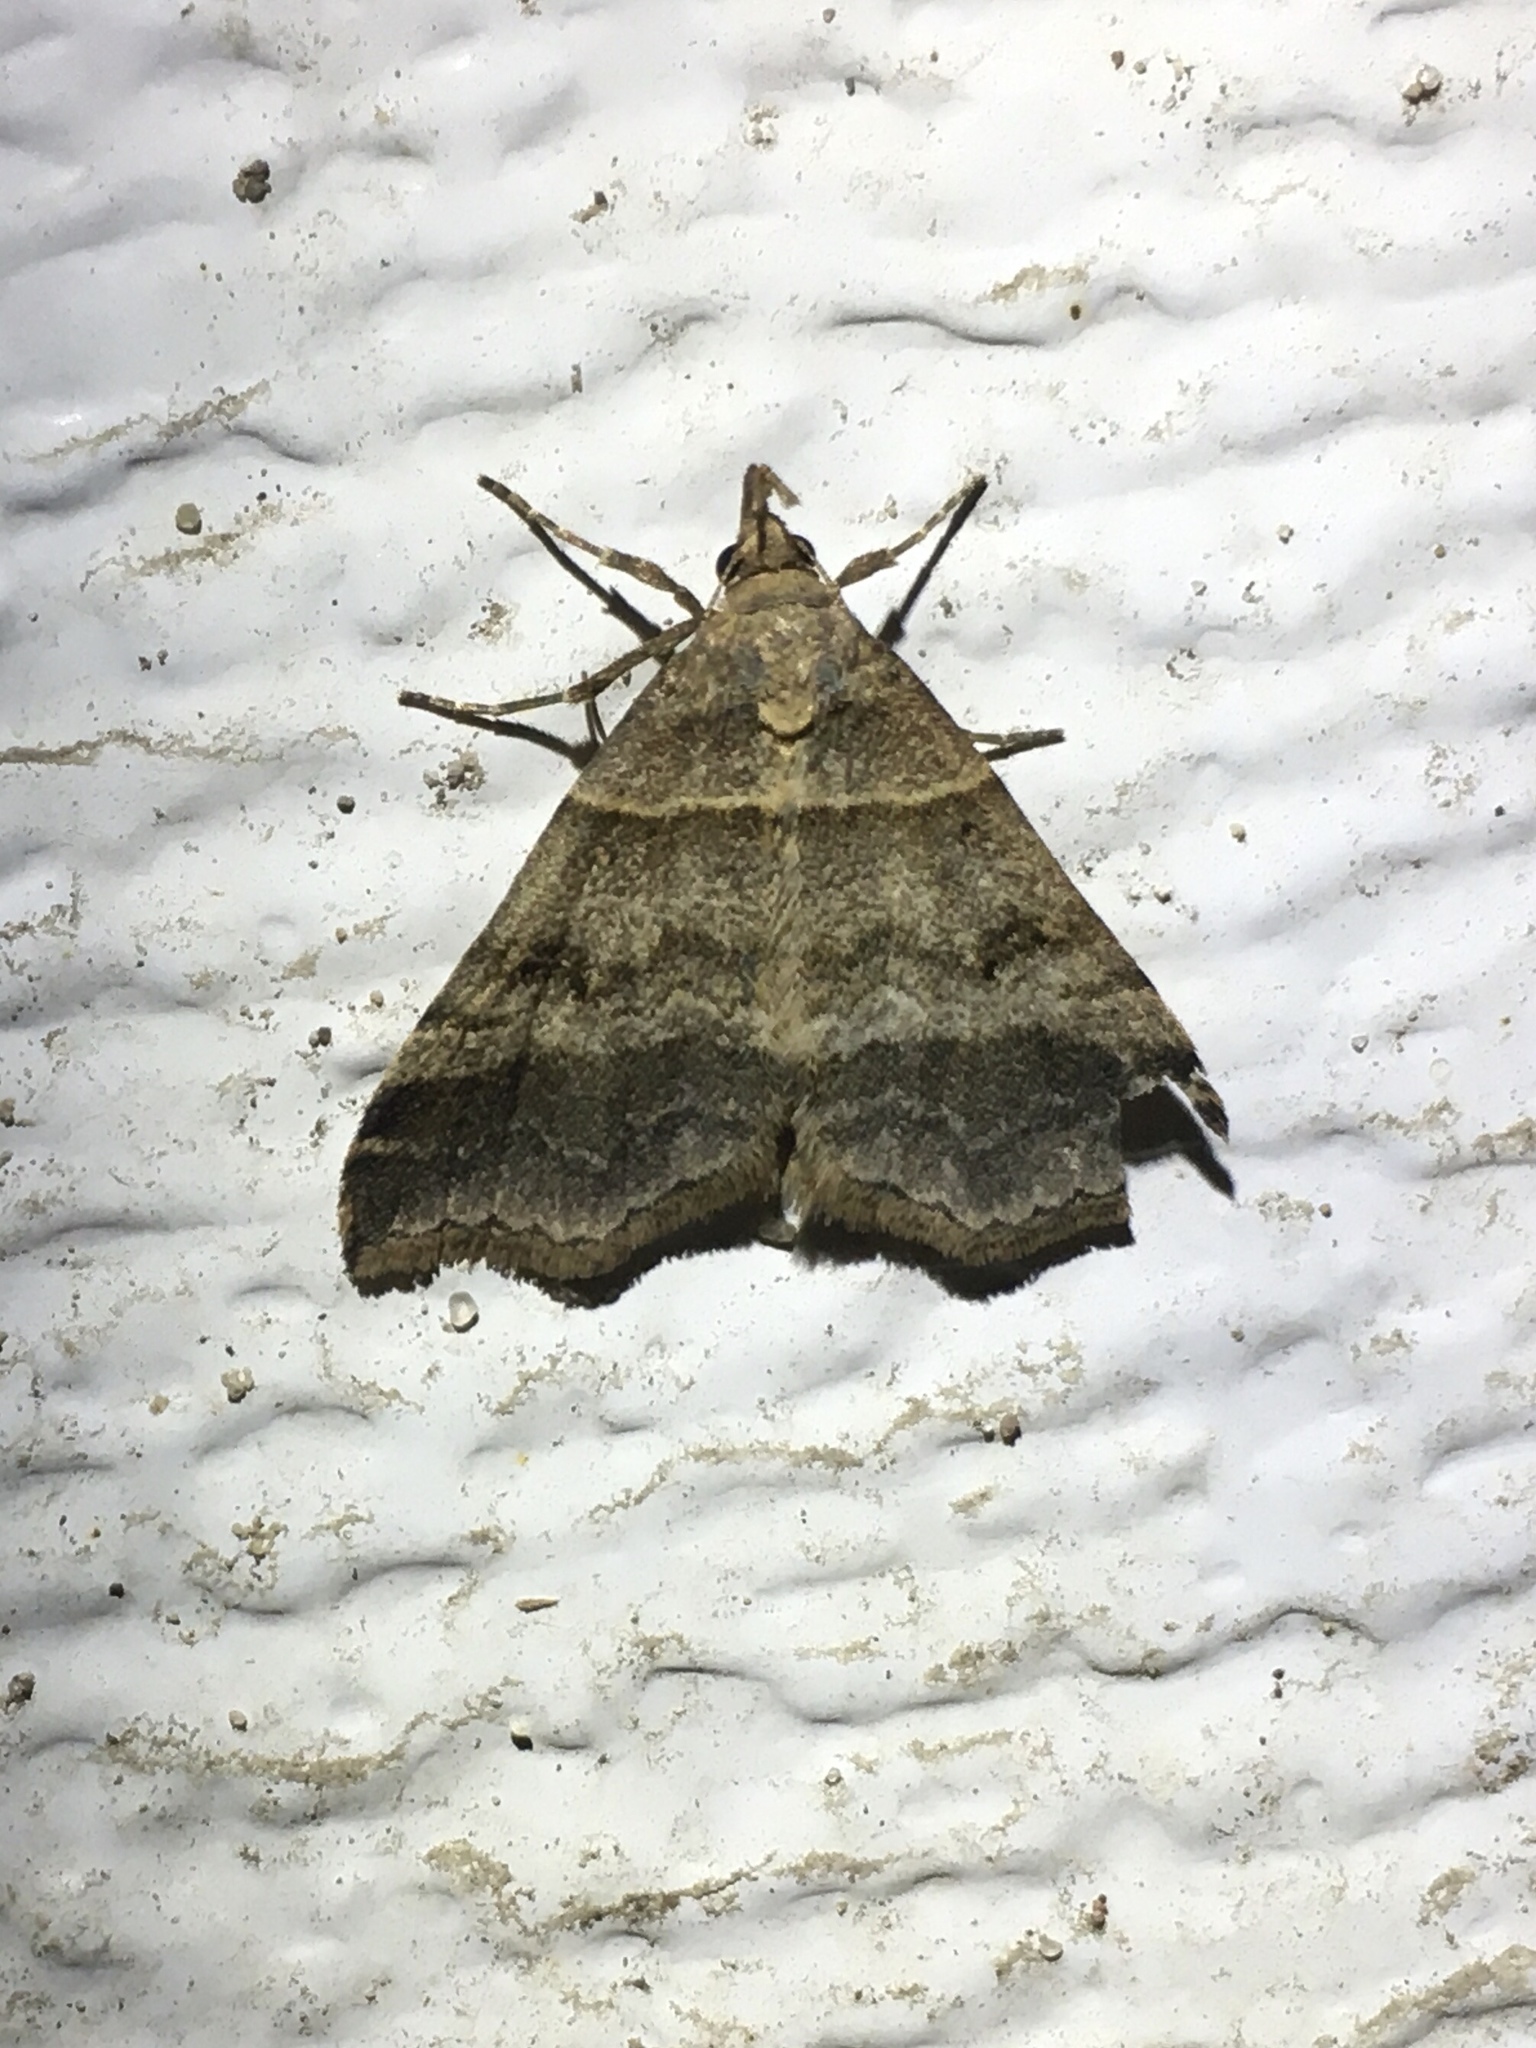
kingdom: Animalia
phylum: Arthropoda
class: Insecta
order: Lepidoptera
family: Erebidae
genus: Phaeolita
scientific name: Phaeolita pyramusalis
